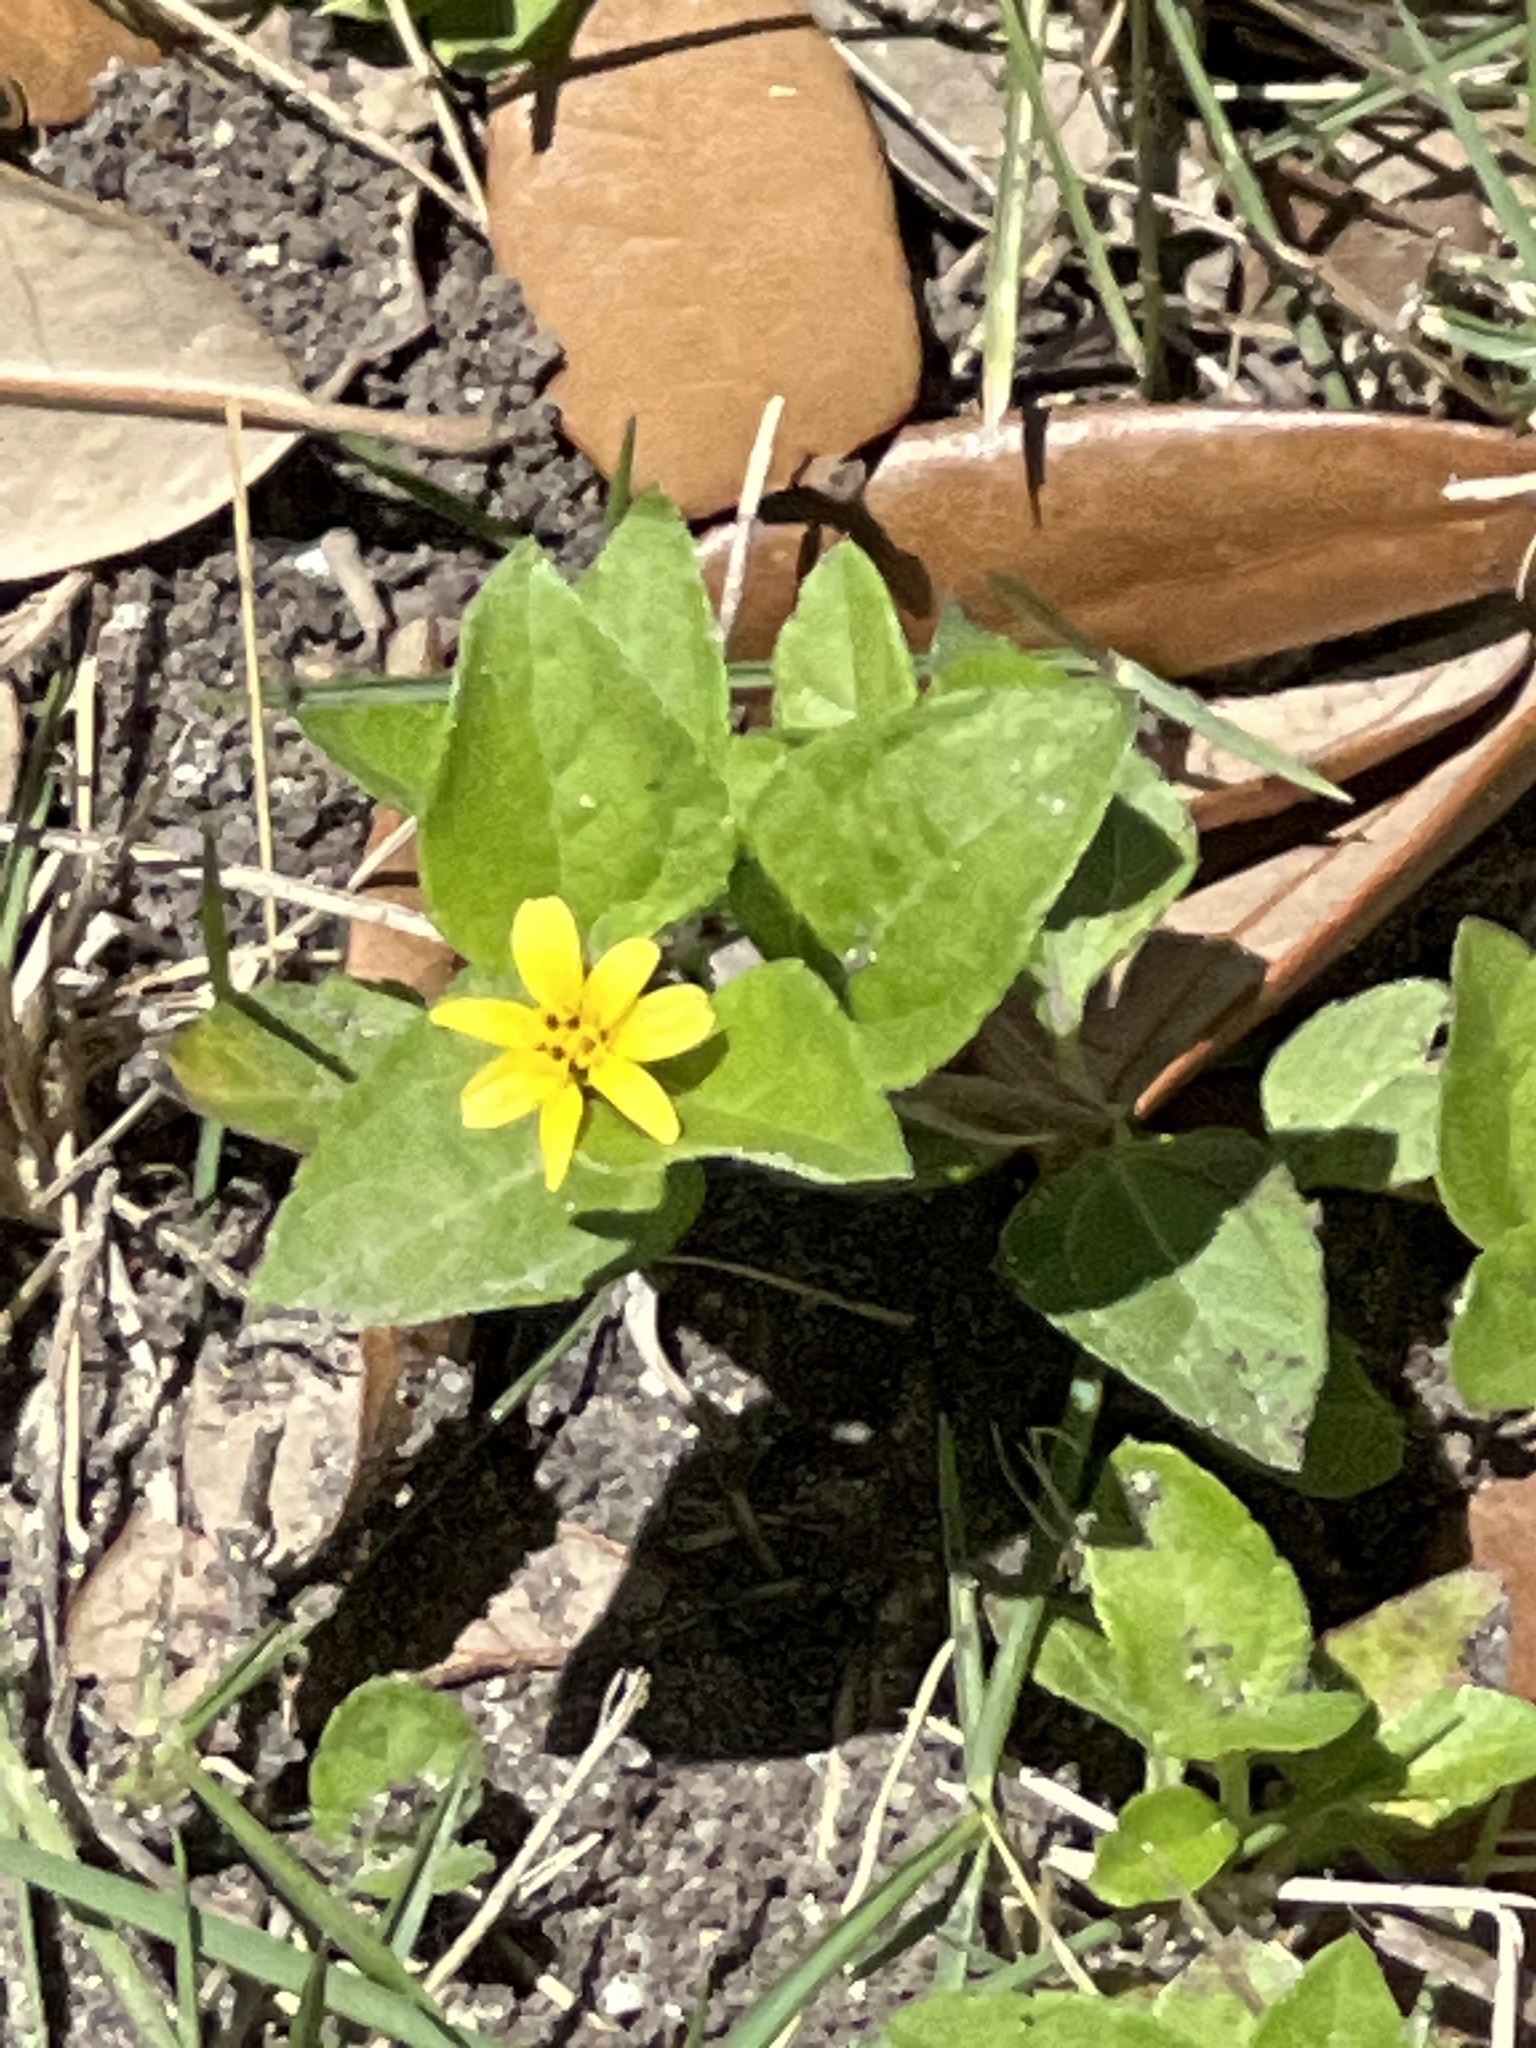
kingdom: Plantae
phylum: Tracheophyta
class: Magnoliopsida
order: Asterales
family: Asteraceae
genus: Calyptocarpus
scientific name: Calyptocarpus vialis
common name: Straggler daisy
